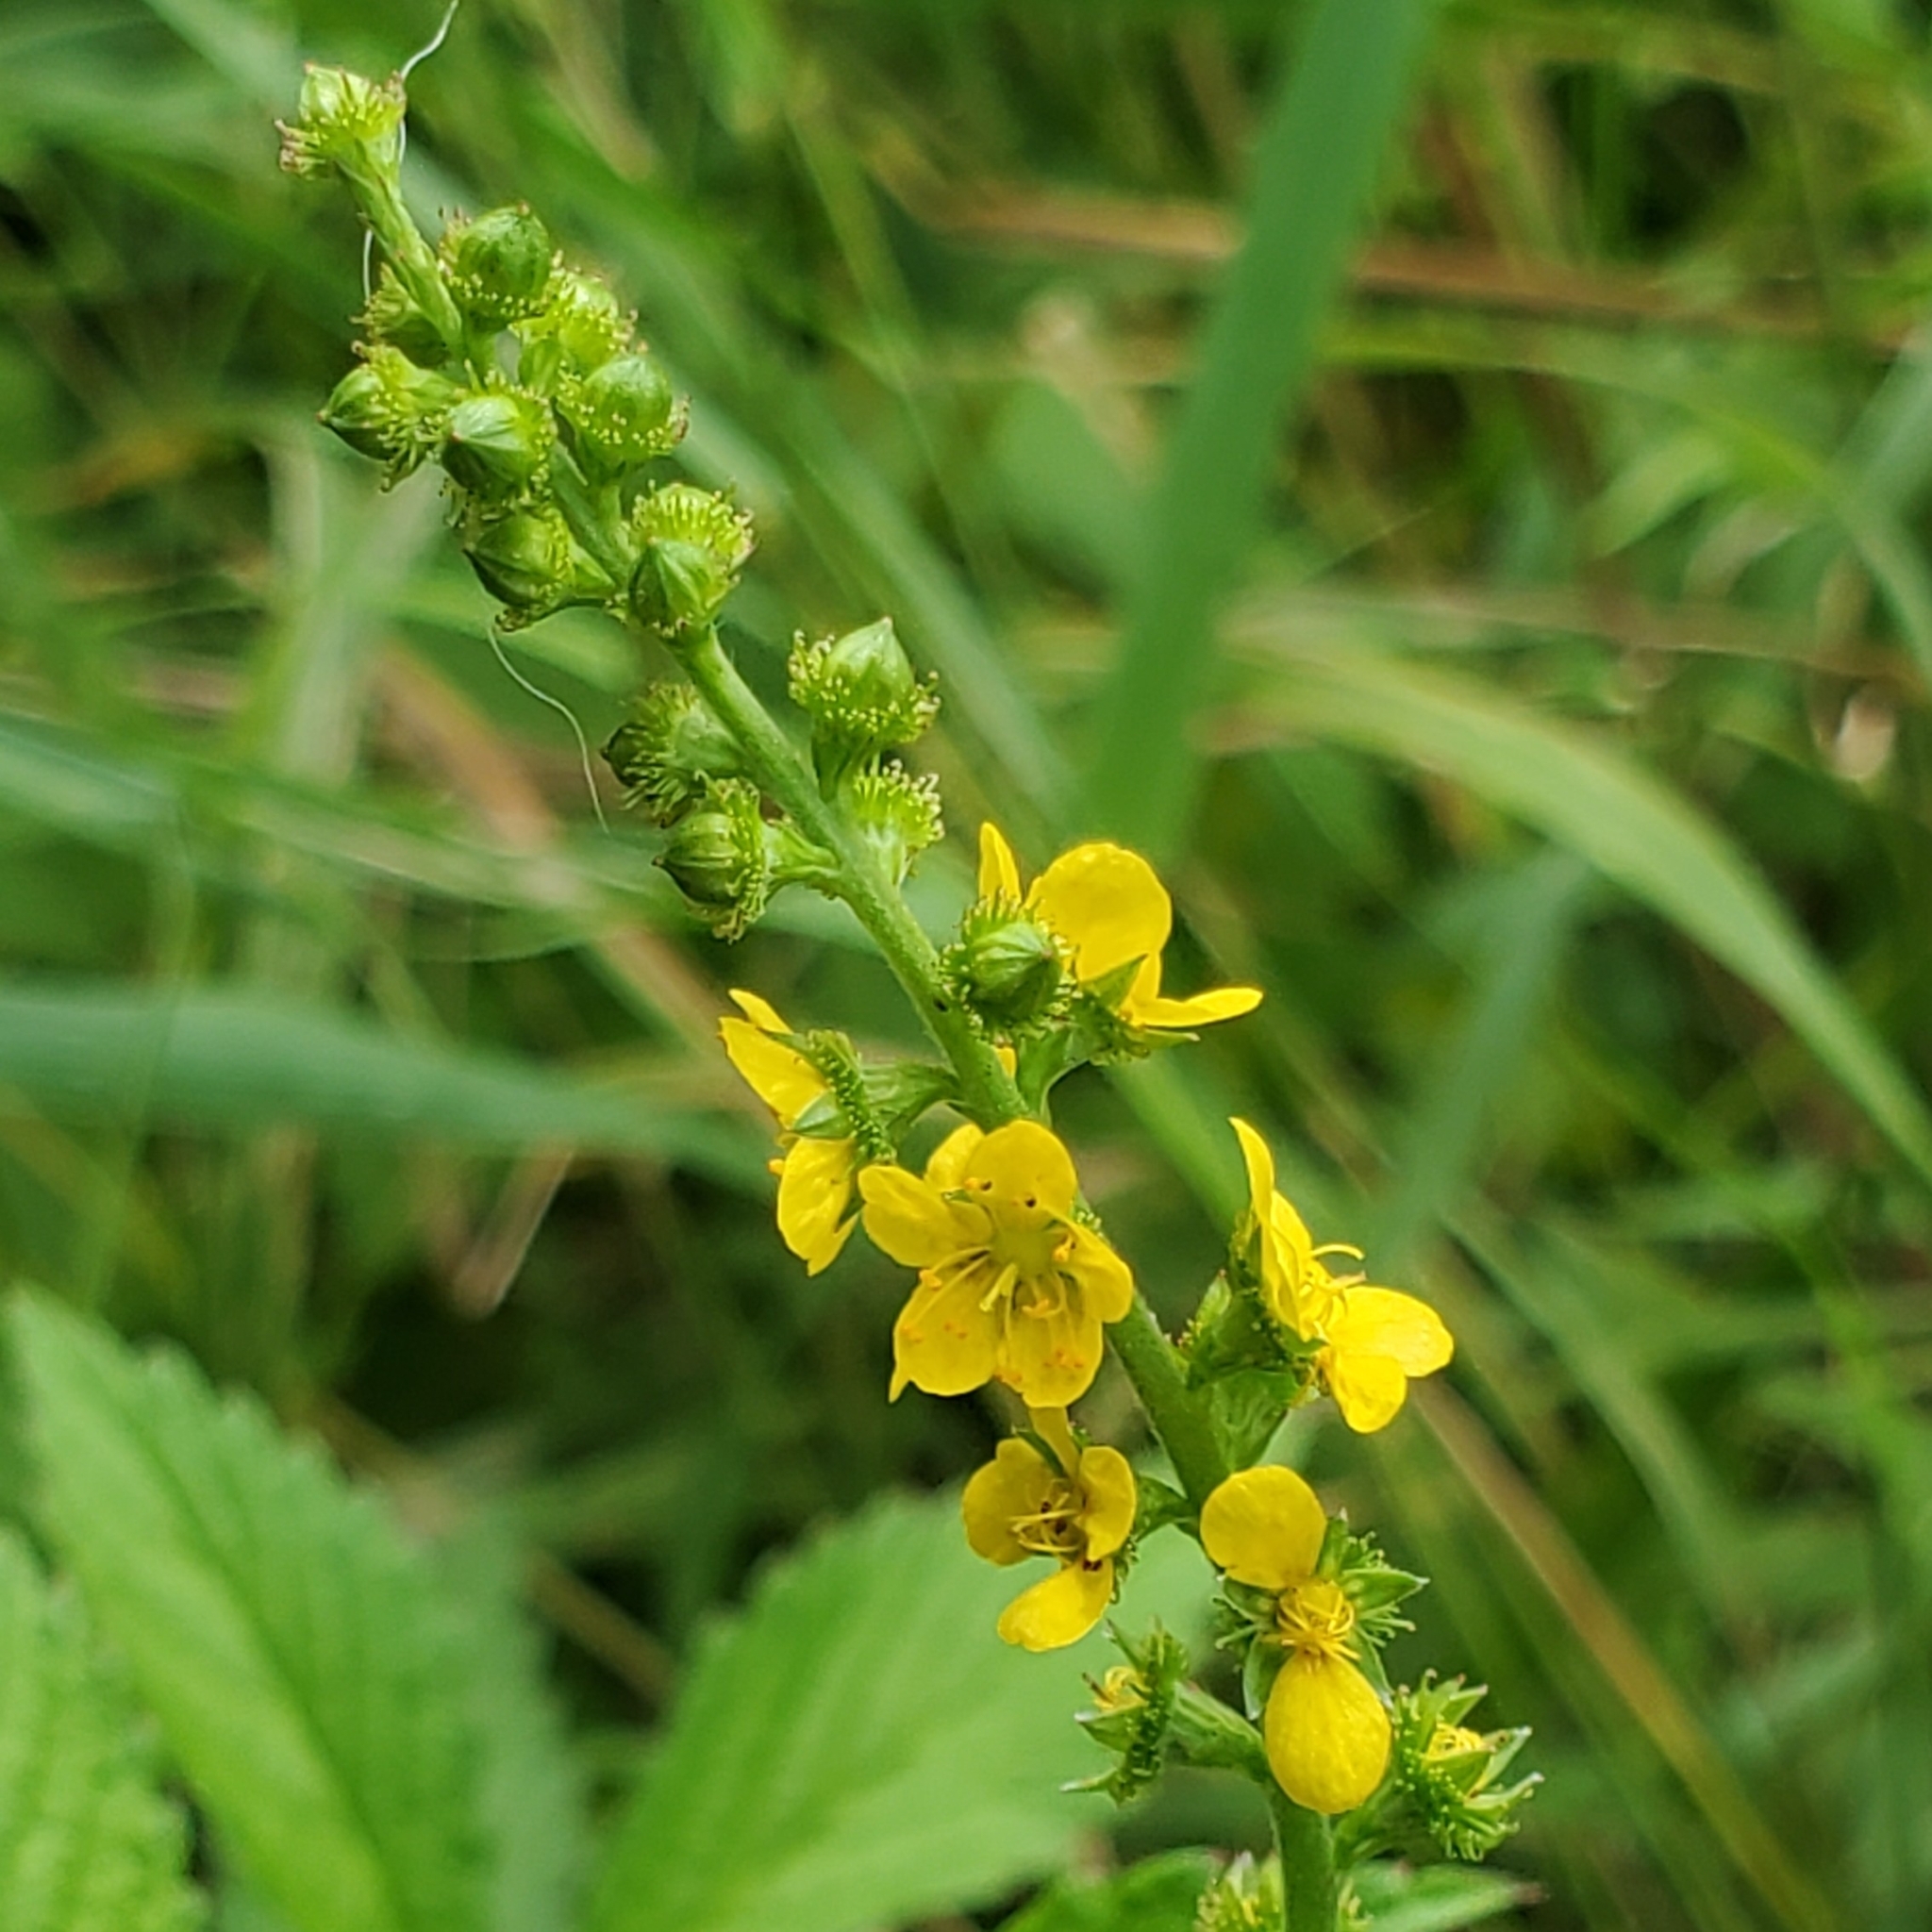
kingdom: Plantae
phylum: Tracheophyta
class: Magnoliopsida
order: Rosales
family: Rosaceae
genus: Agrimonia
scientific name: Agrimonia striata
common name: Britton's agrimony
